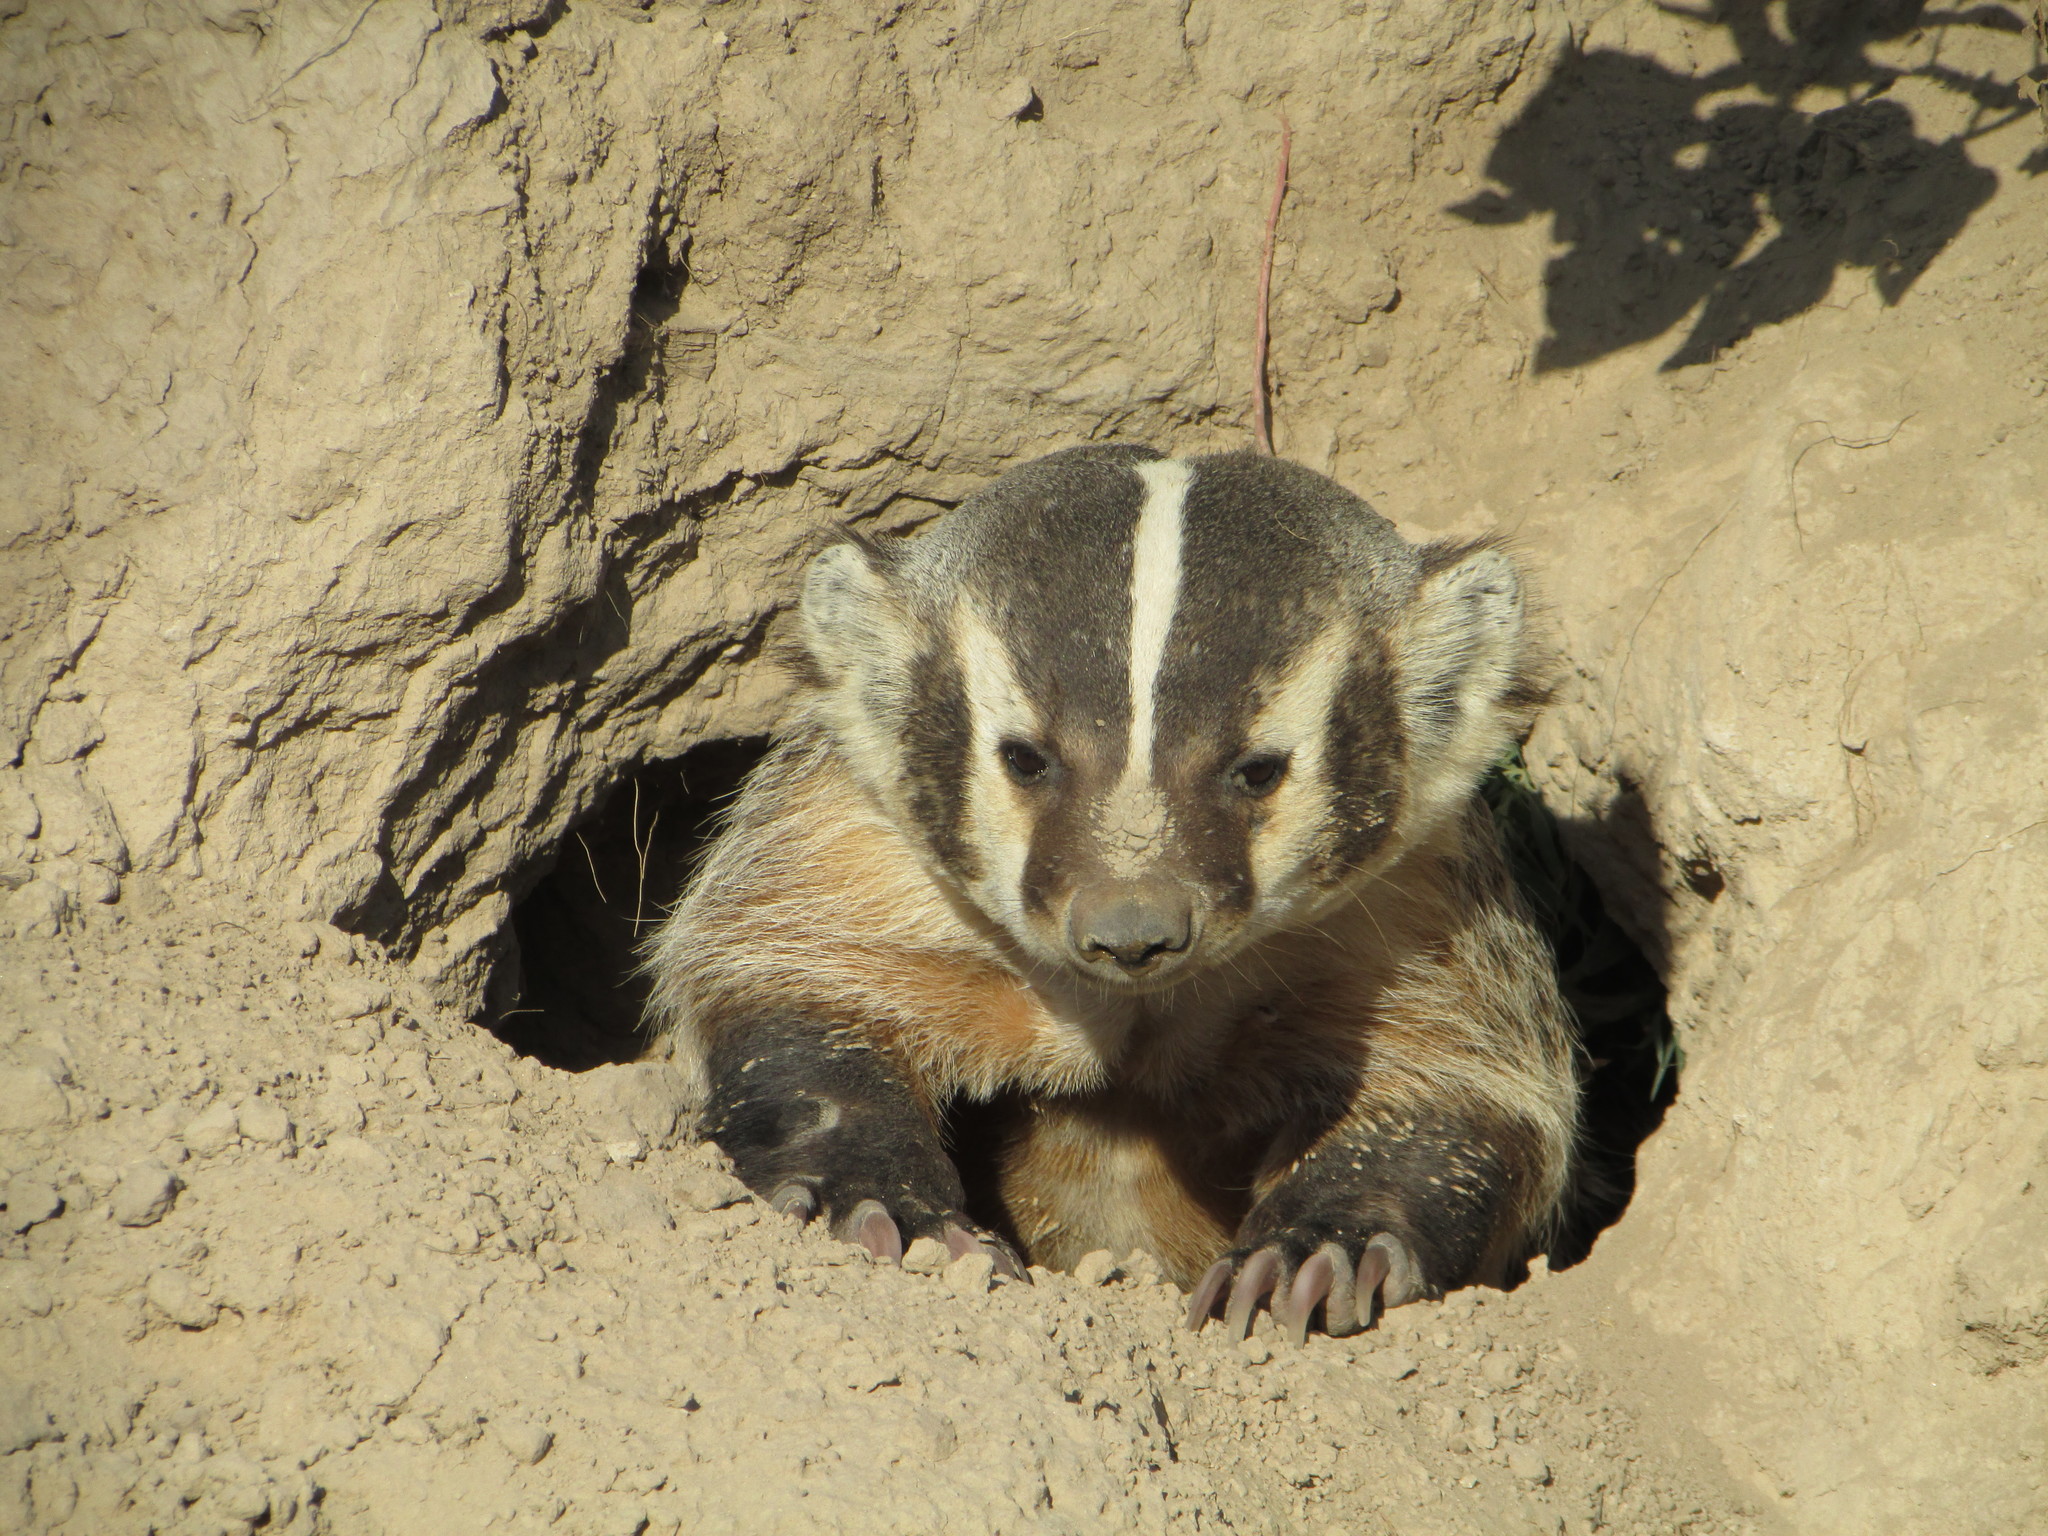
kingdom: Animalia
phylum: Chordata
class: Mammalia
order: Carnivora
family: Mustelidae
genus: Taxidea
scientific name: Taxidea taxus
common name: American badger
